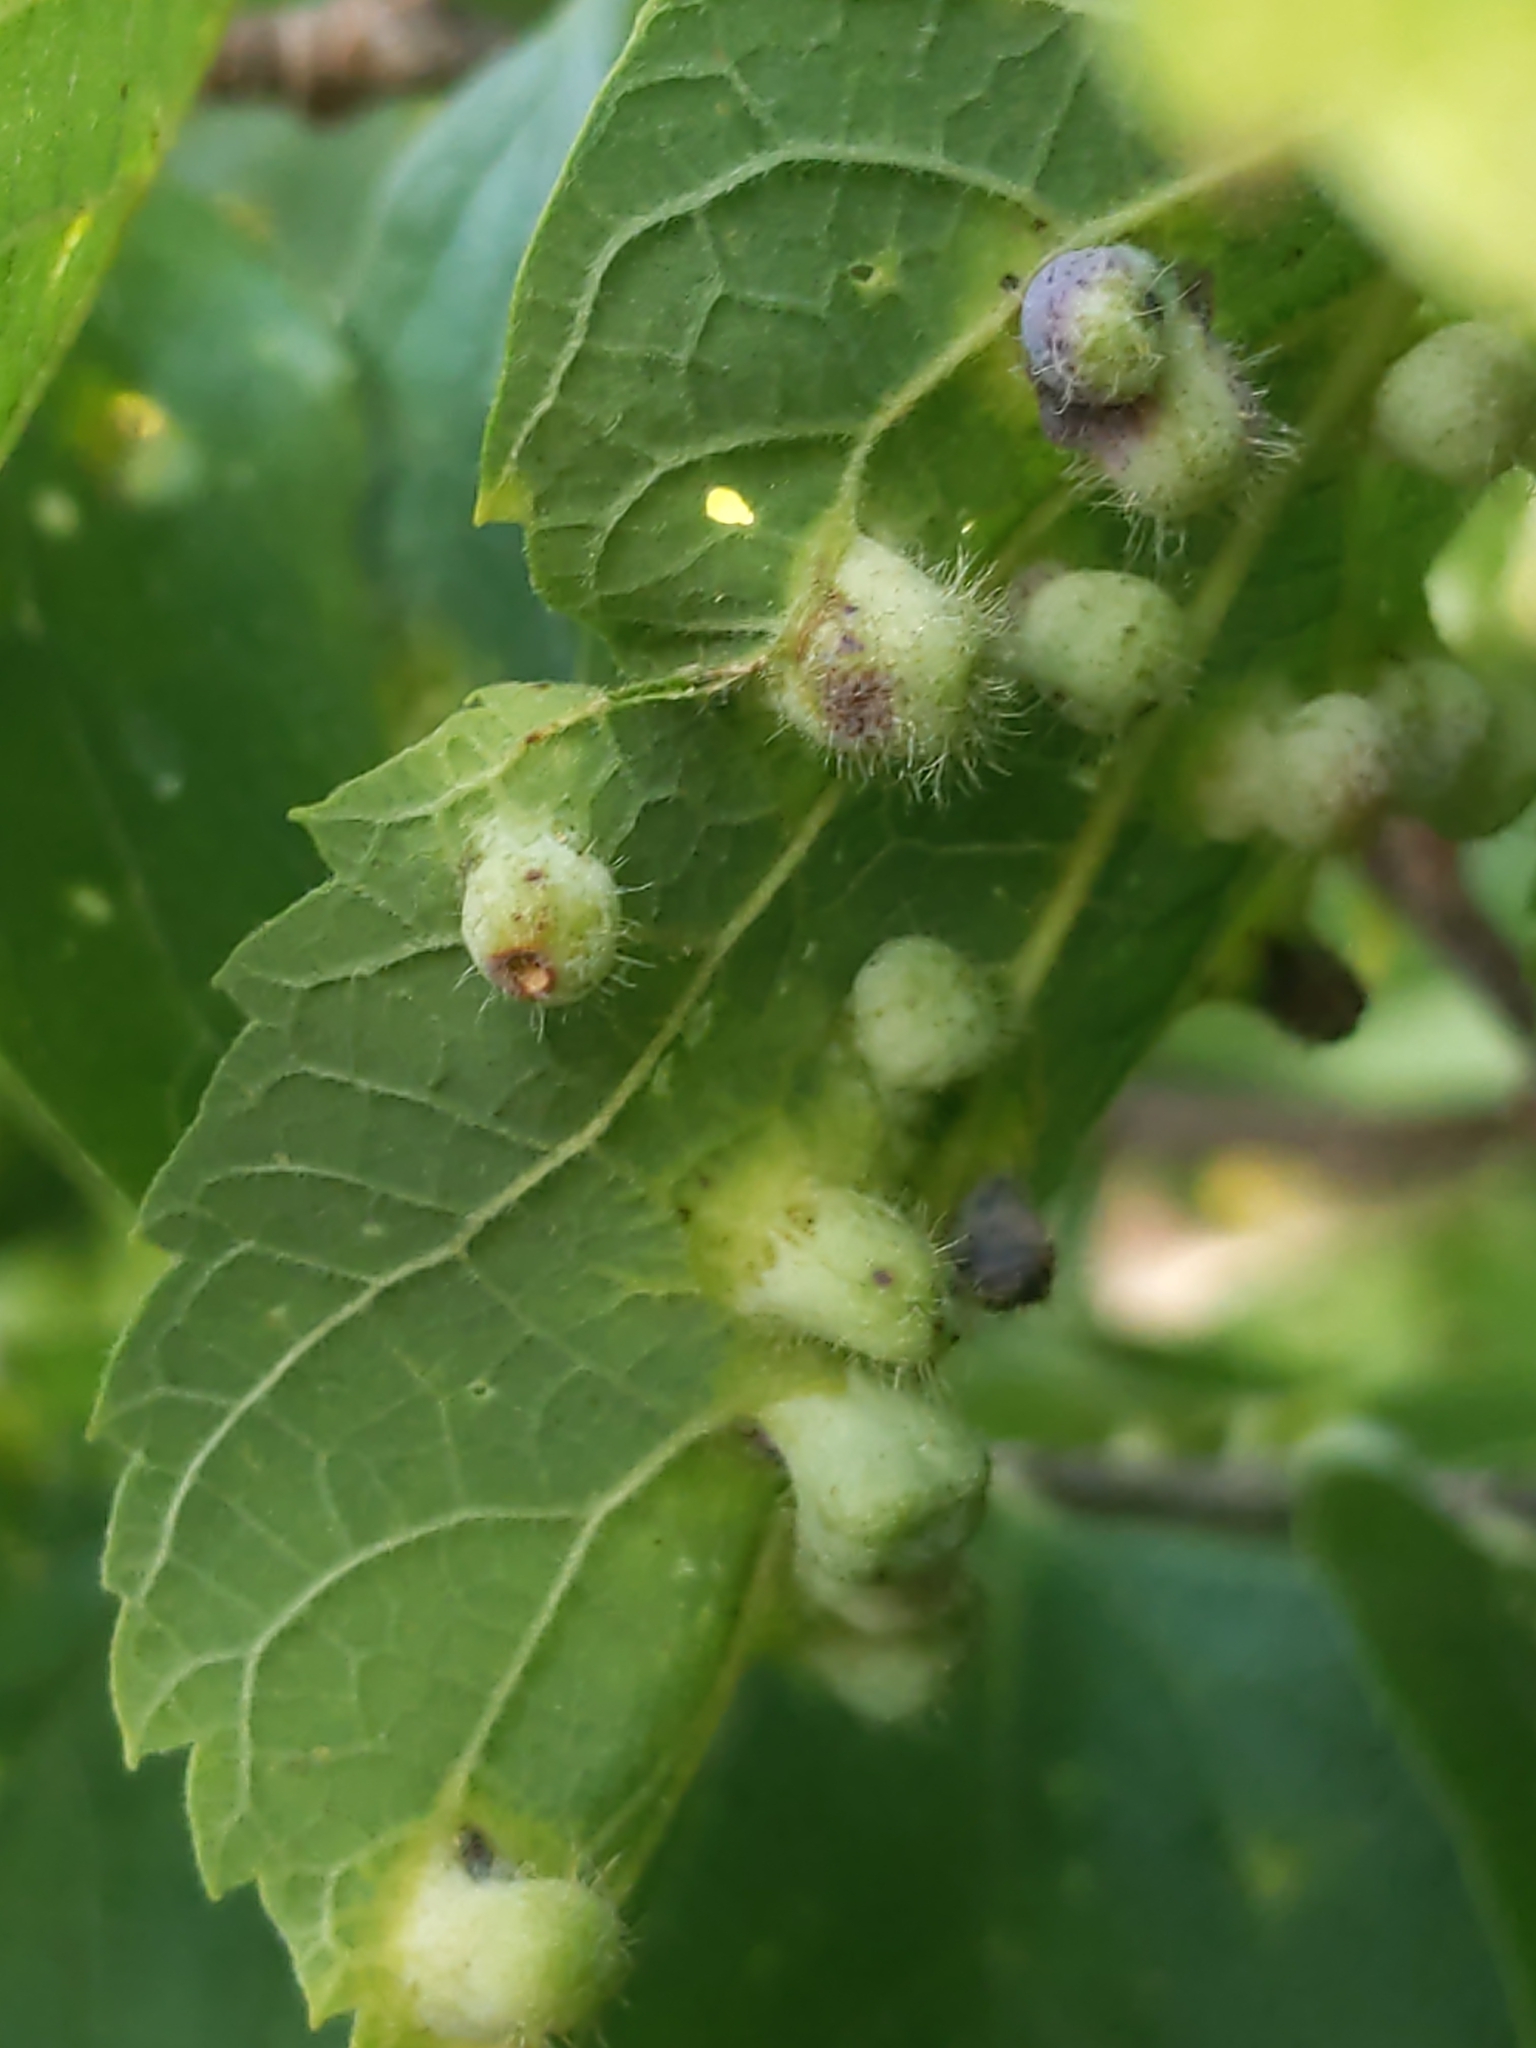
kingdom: Animalia
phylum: Arthropoda
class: Insecta
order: Hemiptera
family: Aphalaridae
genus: Pachypsylla
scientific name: Pachypsylla celtidismamma
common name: Hackberry nipplegall psyllid
